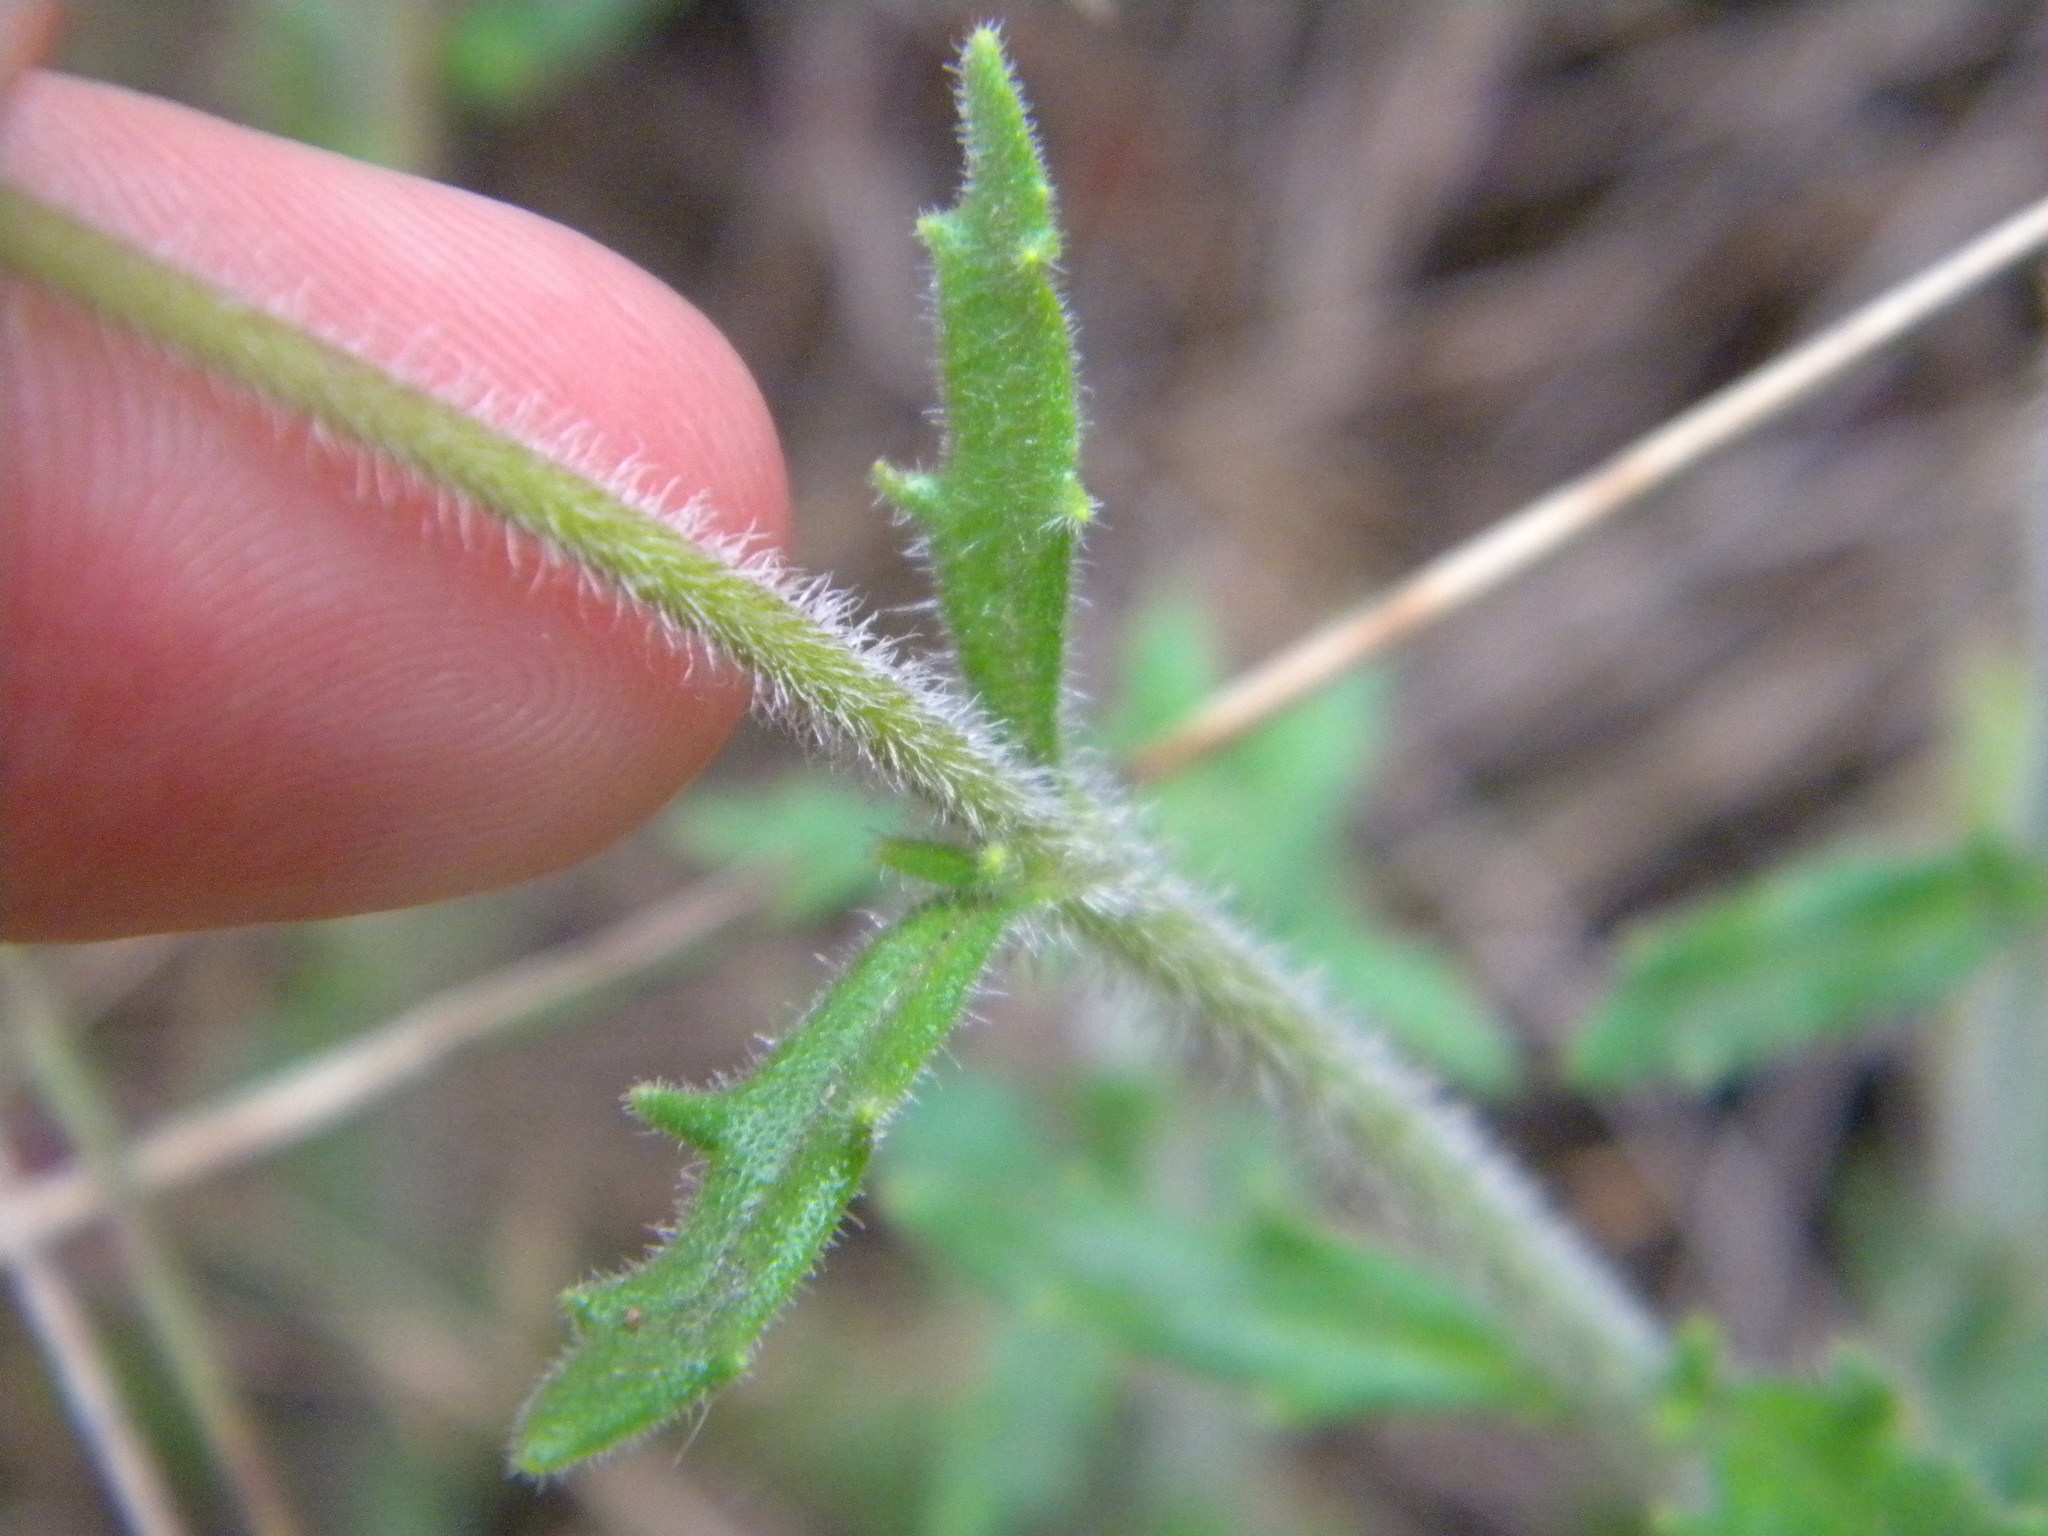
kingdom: Plantae
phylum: Tracheophyta
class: Magnoliopsida
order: Lamiales
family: Scrophulariaceae
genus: Zaluzianskya
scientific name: Zaluzianskya capensis
